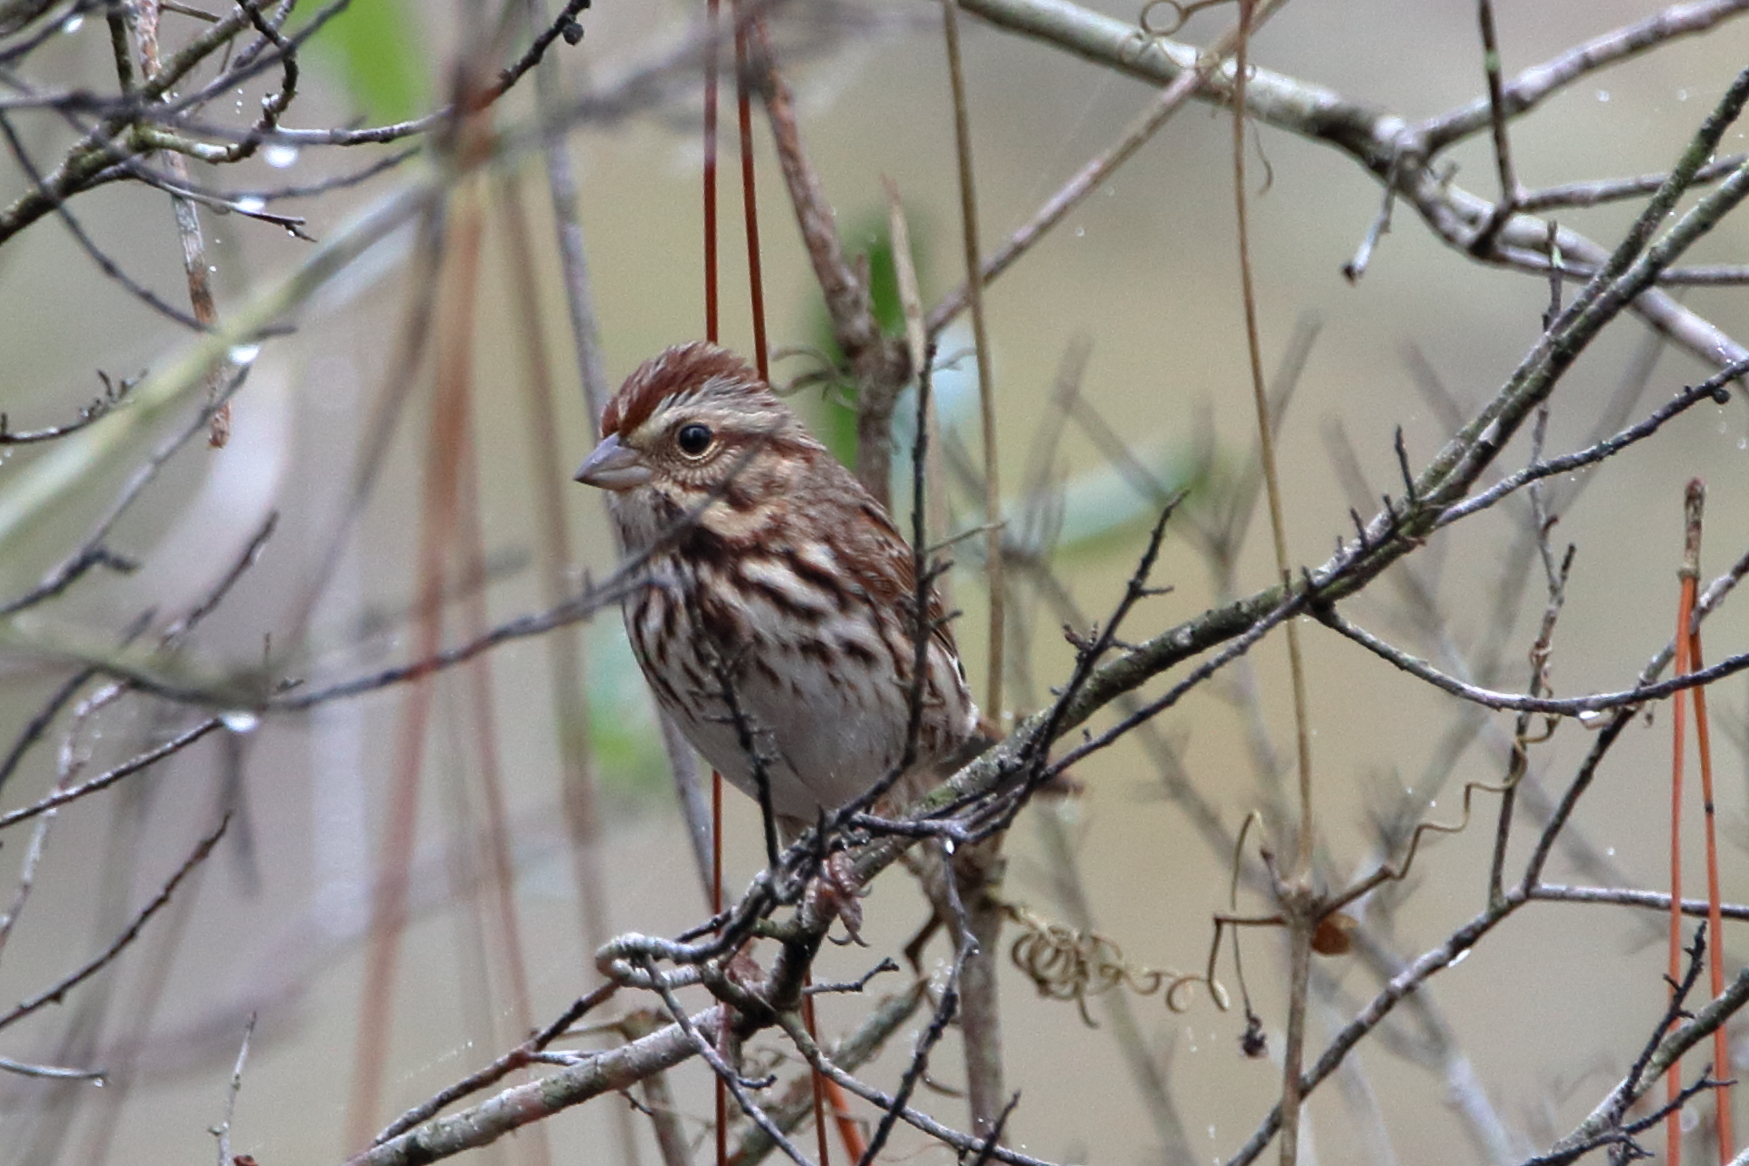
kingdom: Animalia
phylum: Chordata
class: Aves
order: Passeriformes
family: Passerellidae
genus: Melospiza
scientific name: Melospiza melodia
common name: Song sparrow
